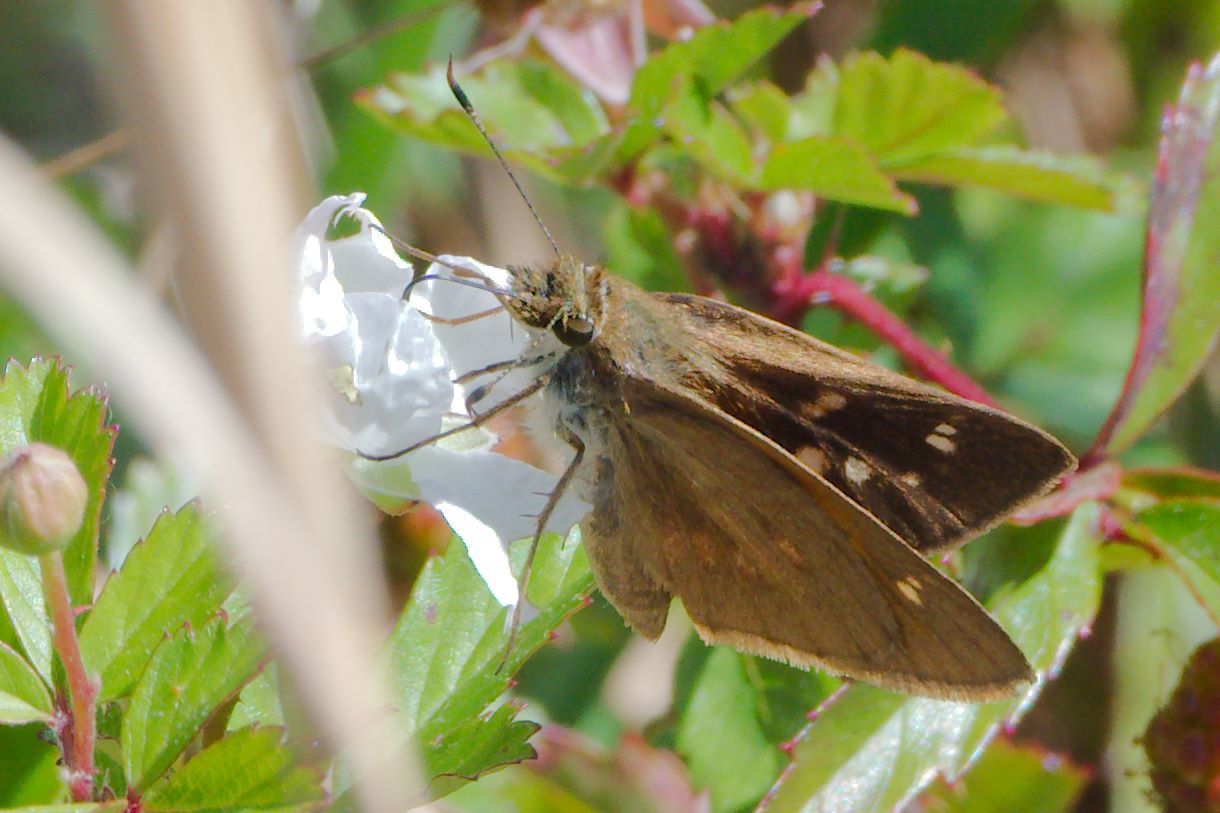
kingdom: Animalia
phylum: Arthropoda
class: Insecta
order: Lepidoptera
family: Hesperiidae
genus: Poanes
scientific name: Poanes viator
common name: Broad-winged skipper
